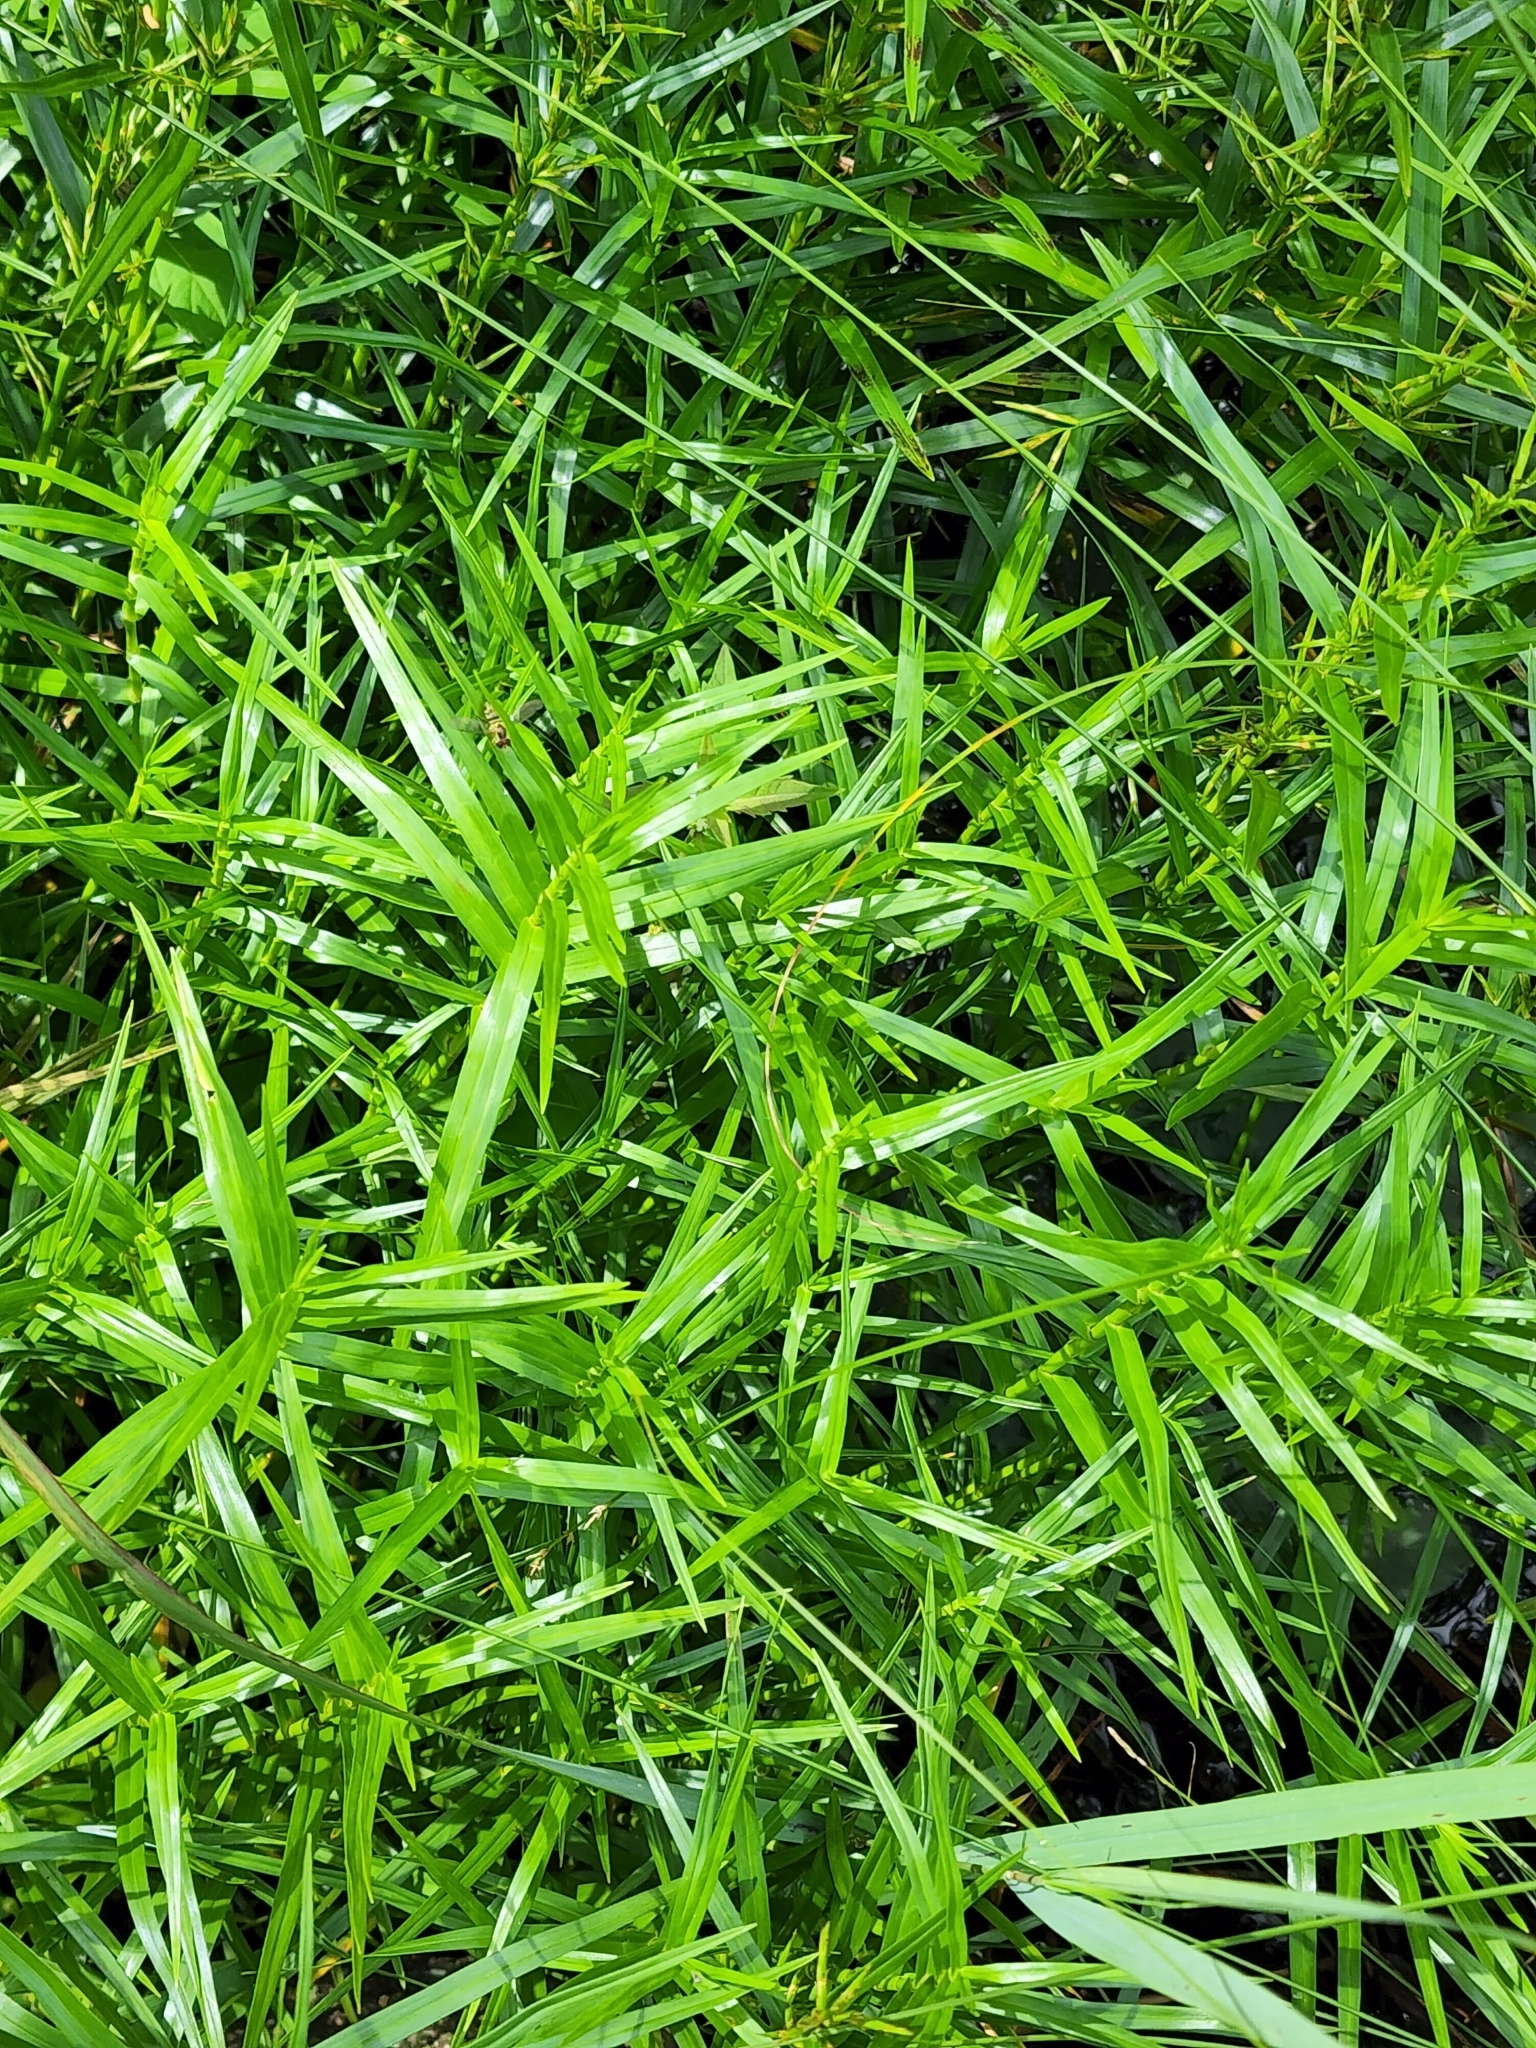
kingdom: Plantae
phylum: Tracheophyta
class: Liliopsida
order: Poales
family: Cyperaceae
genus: Dulichium
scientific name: Dulichium arundinaceum
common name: Three-way sedge
